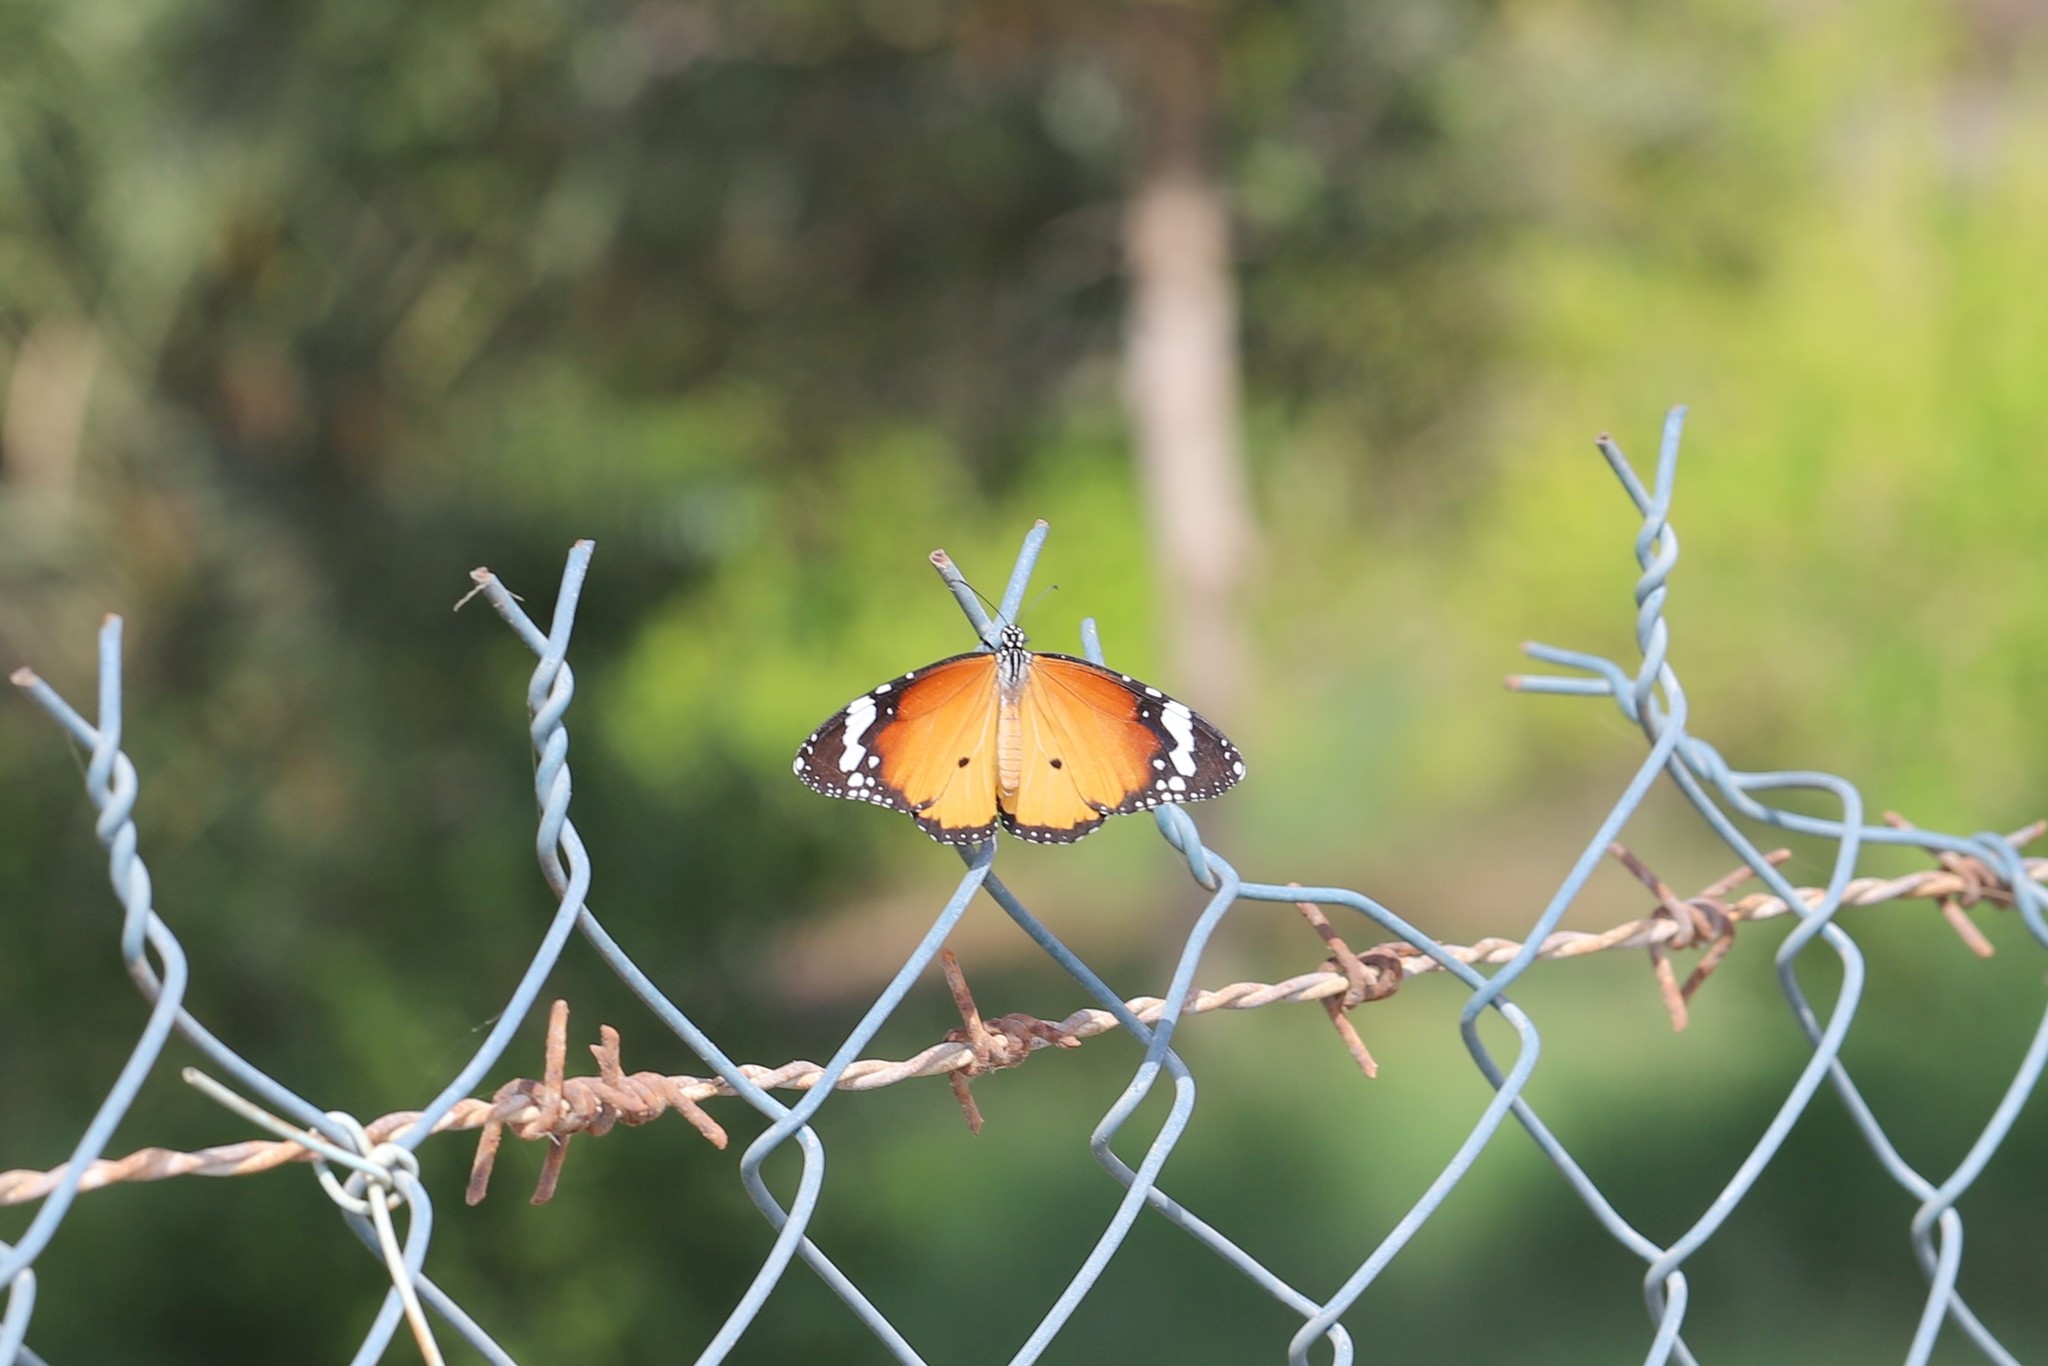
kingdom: Animalia
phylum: Arthropoda
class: Insecta
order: Lepidoptera
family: Nymphalidae
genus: Danaus
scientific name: Danaus chrysippus
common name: Plain tiger
